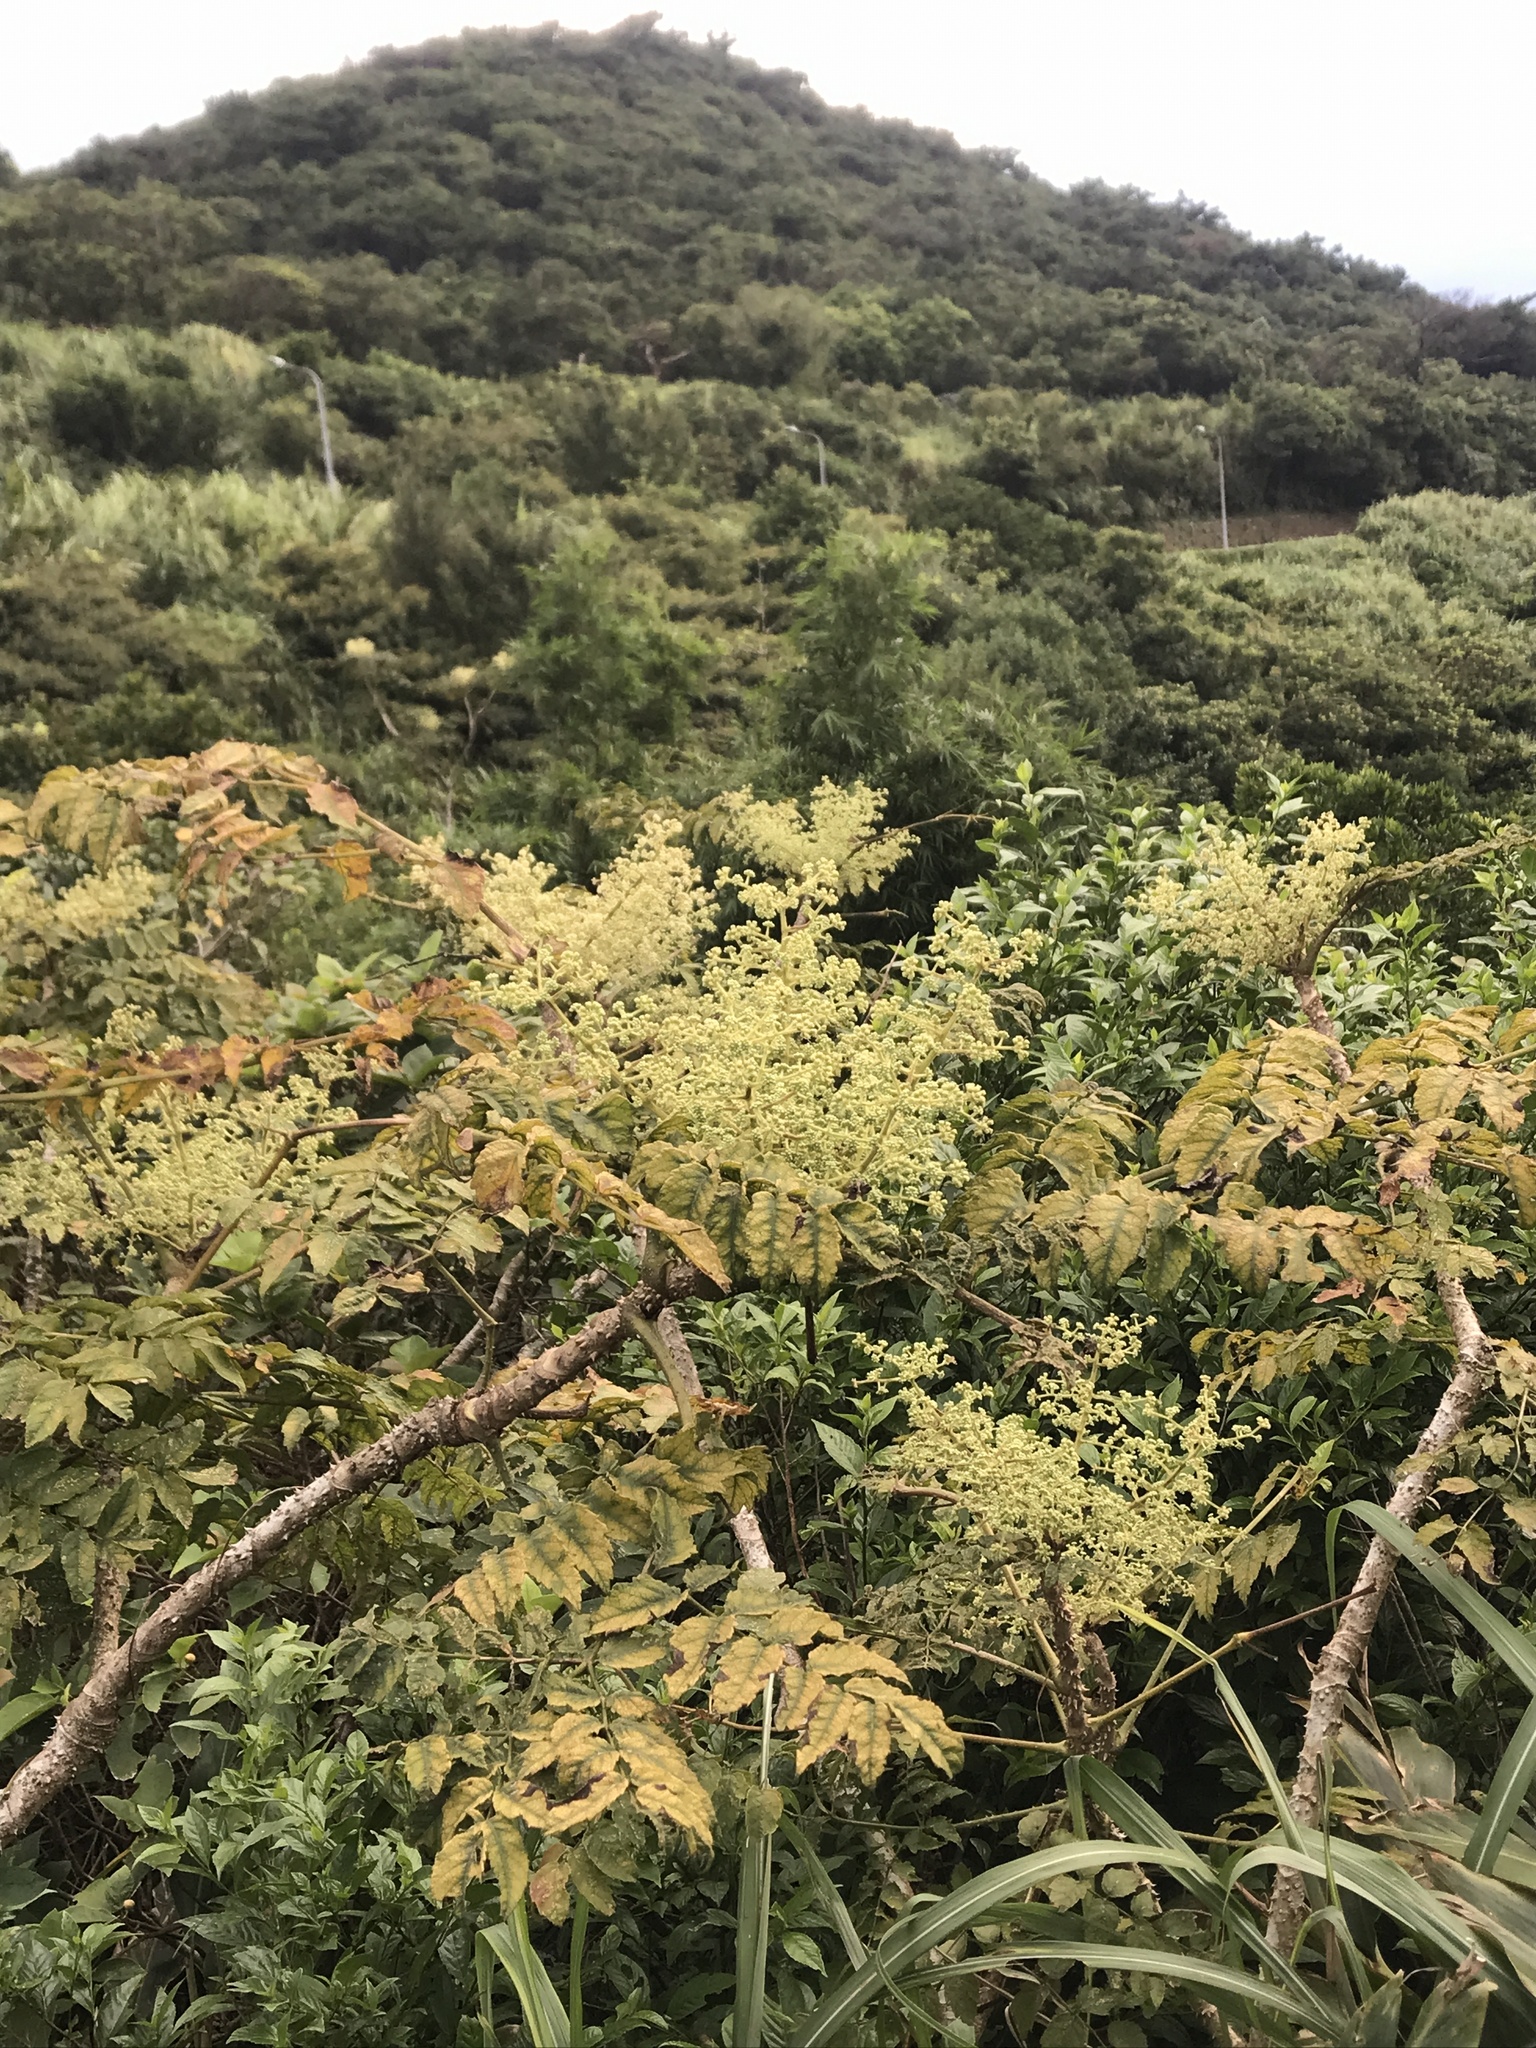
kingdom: Plantae
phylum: Tracheophyta
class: Magnoliopsida
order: Apiales
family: Araliaceae
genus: Aralia
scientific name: Aralia decaisneana
